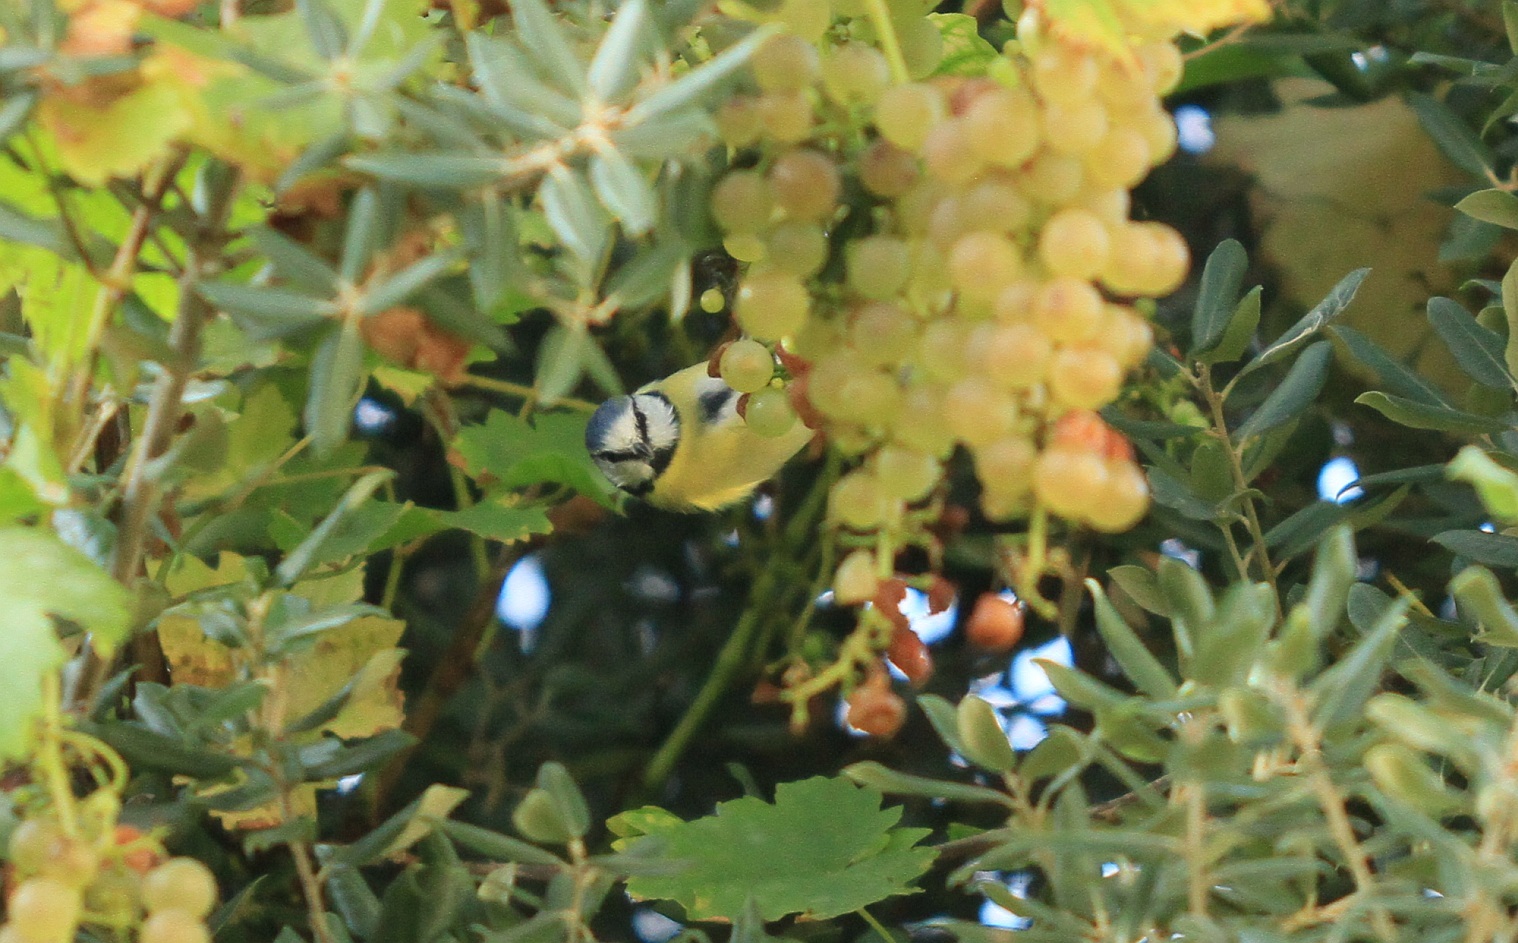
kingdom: Animalia
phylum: Chordata
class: Aves
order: Passeriformes
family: Paridae
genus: Cyanistes
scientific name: Cyanistes caeruleus
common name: Eurasian blue tit
